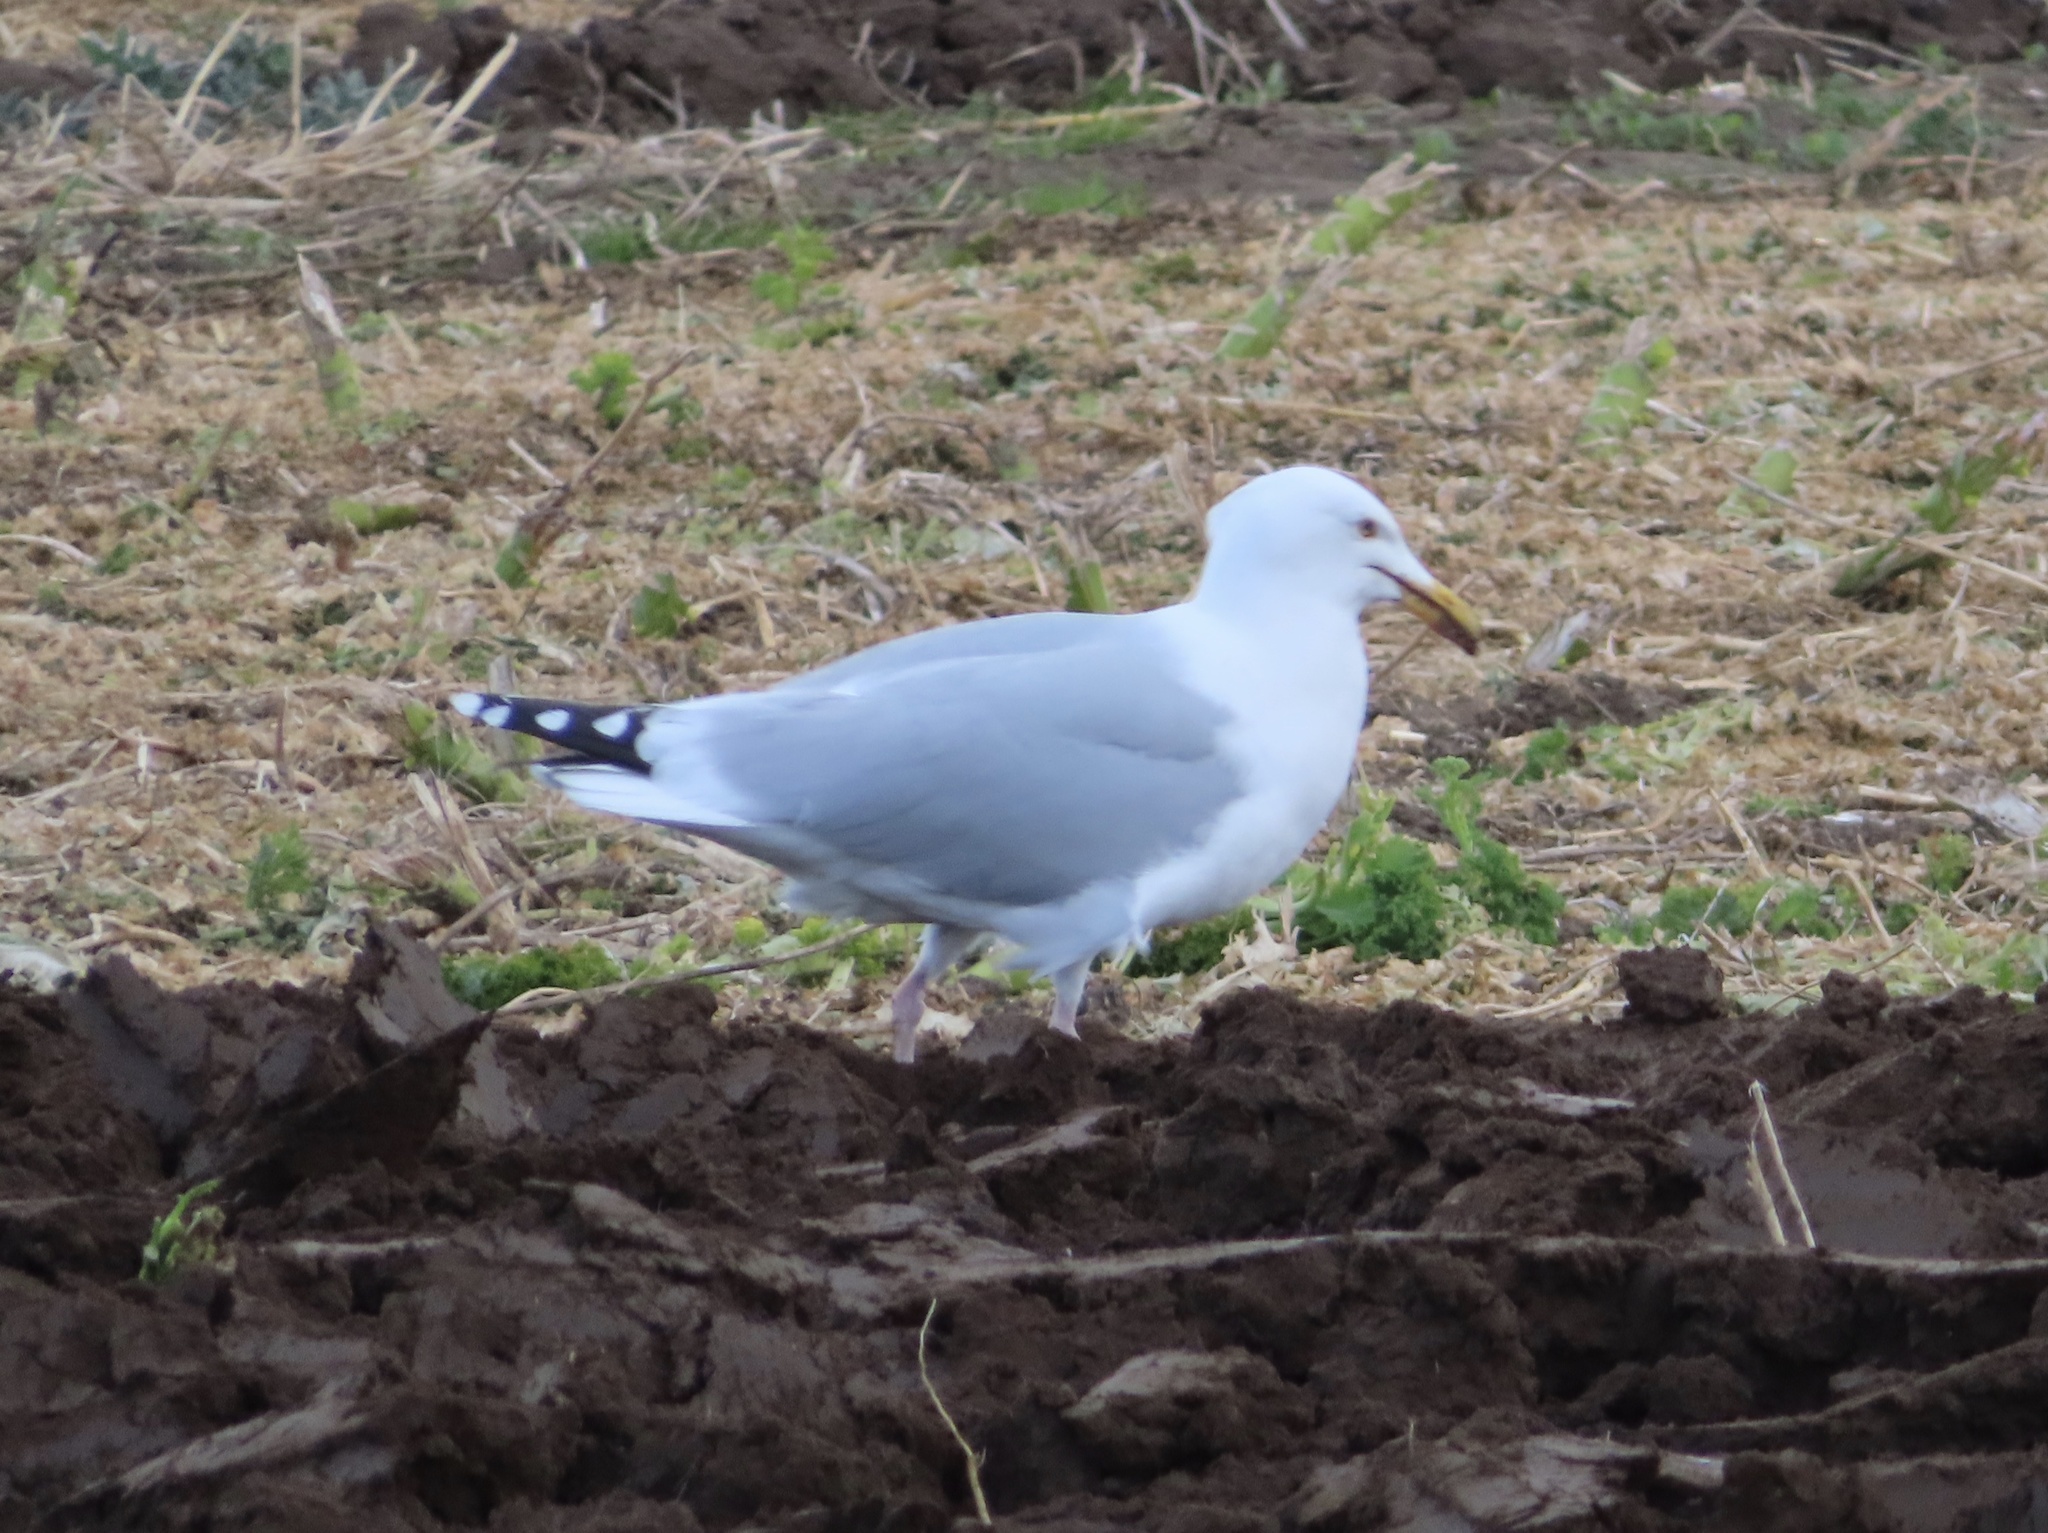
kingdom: Animalia
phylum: Chordata
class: Aves
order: Charadriiformes
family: Laridae
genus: Larus
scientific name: Larus argentatus
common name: Herring gull
